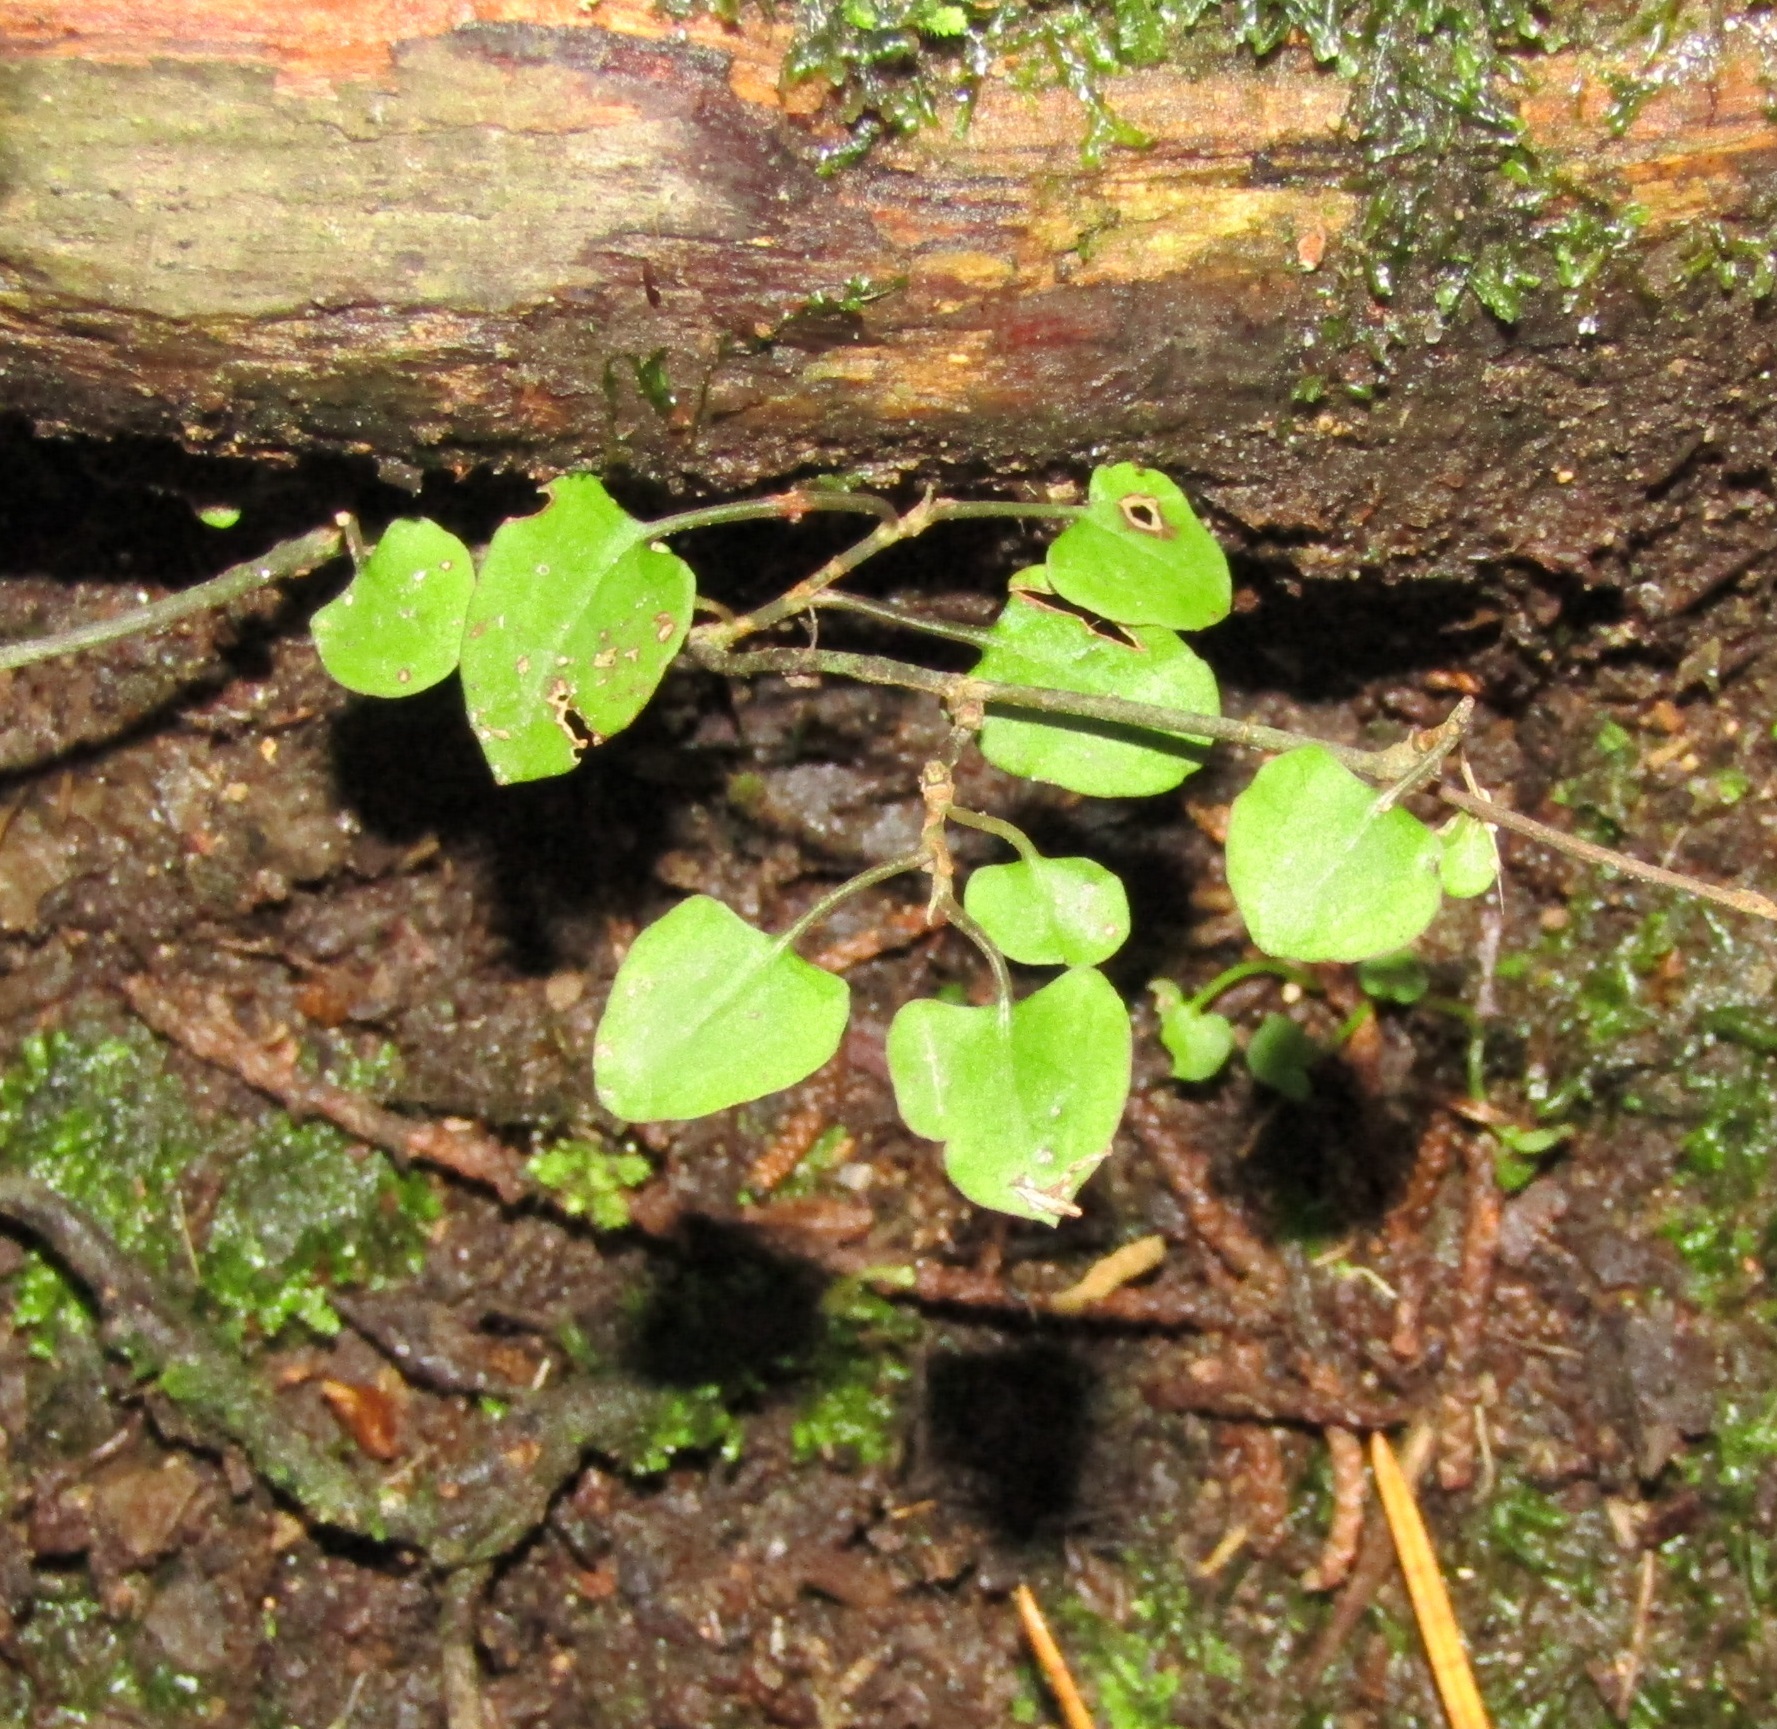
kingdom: Plantae
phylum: Tracheophyta
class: Magnoliopsida
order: Caryophyllales
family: Polygonaceae
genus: Muehlenbeckia
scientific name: Muehlenbeckia australis
